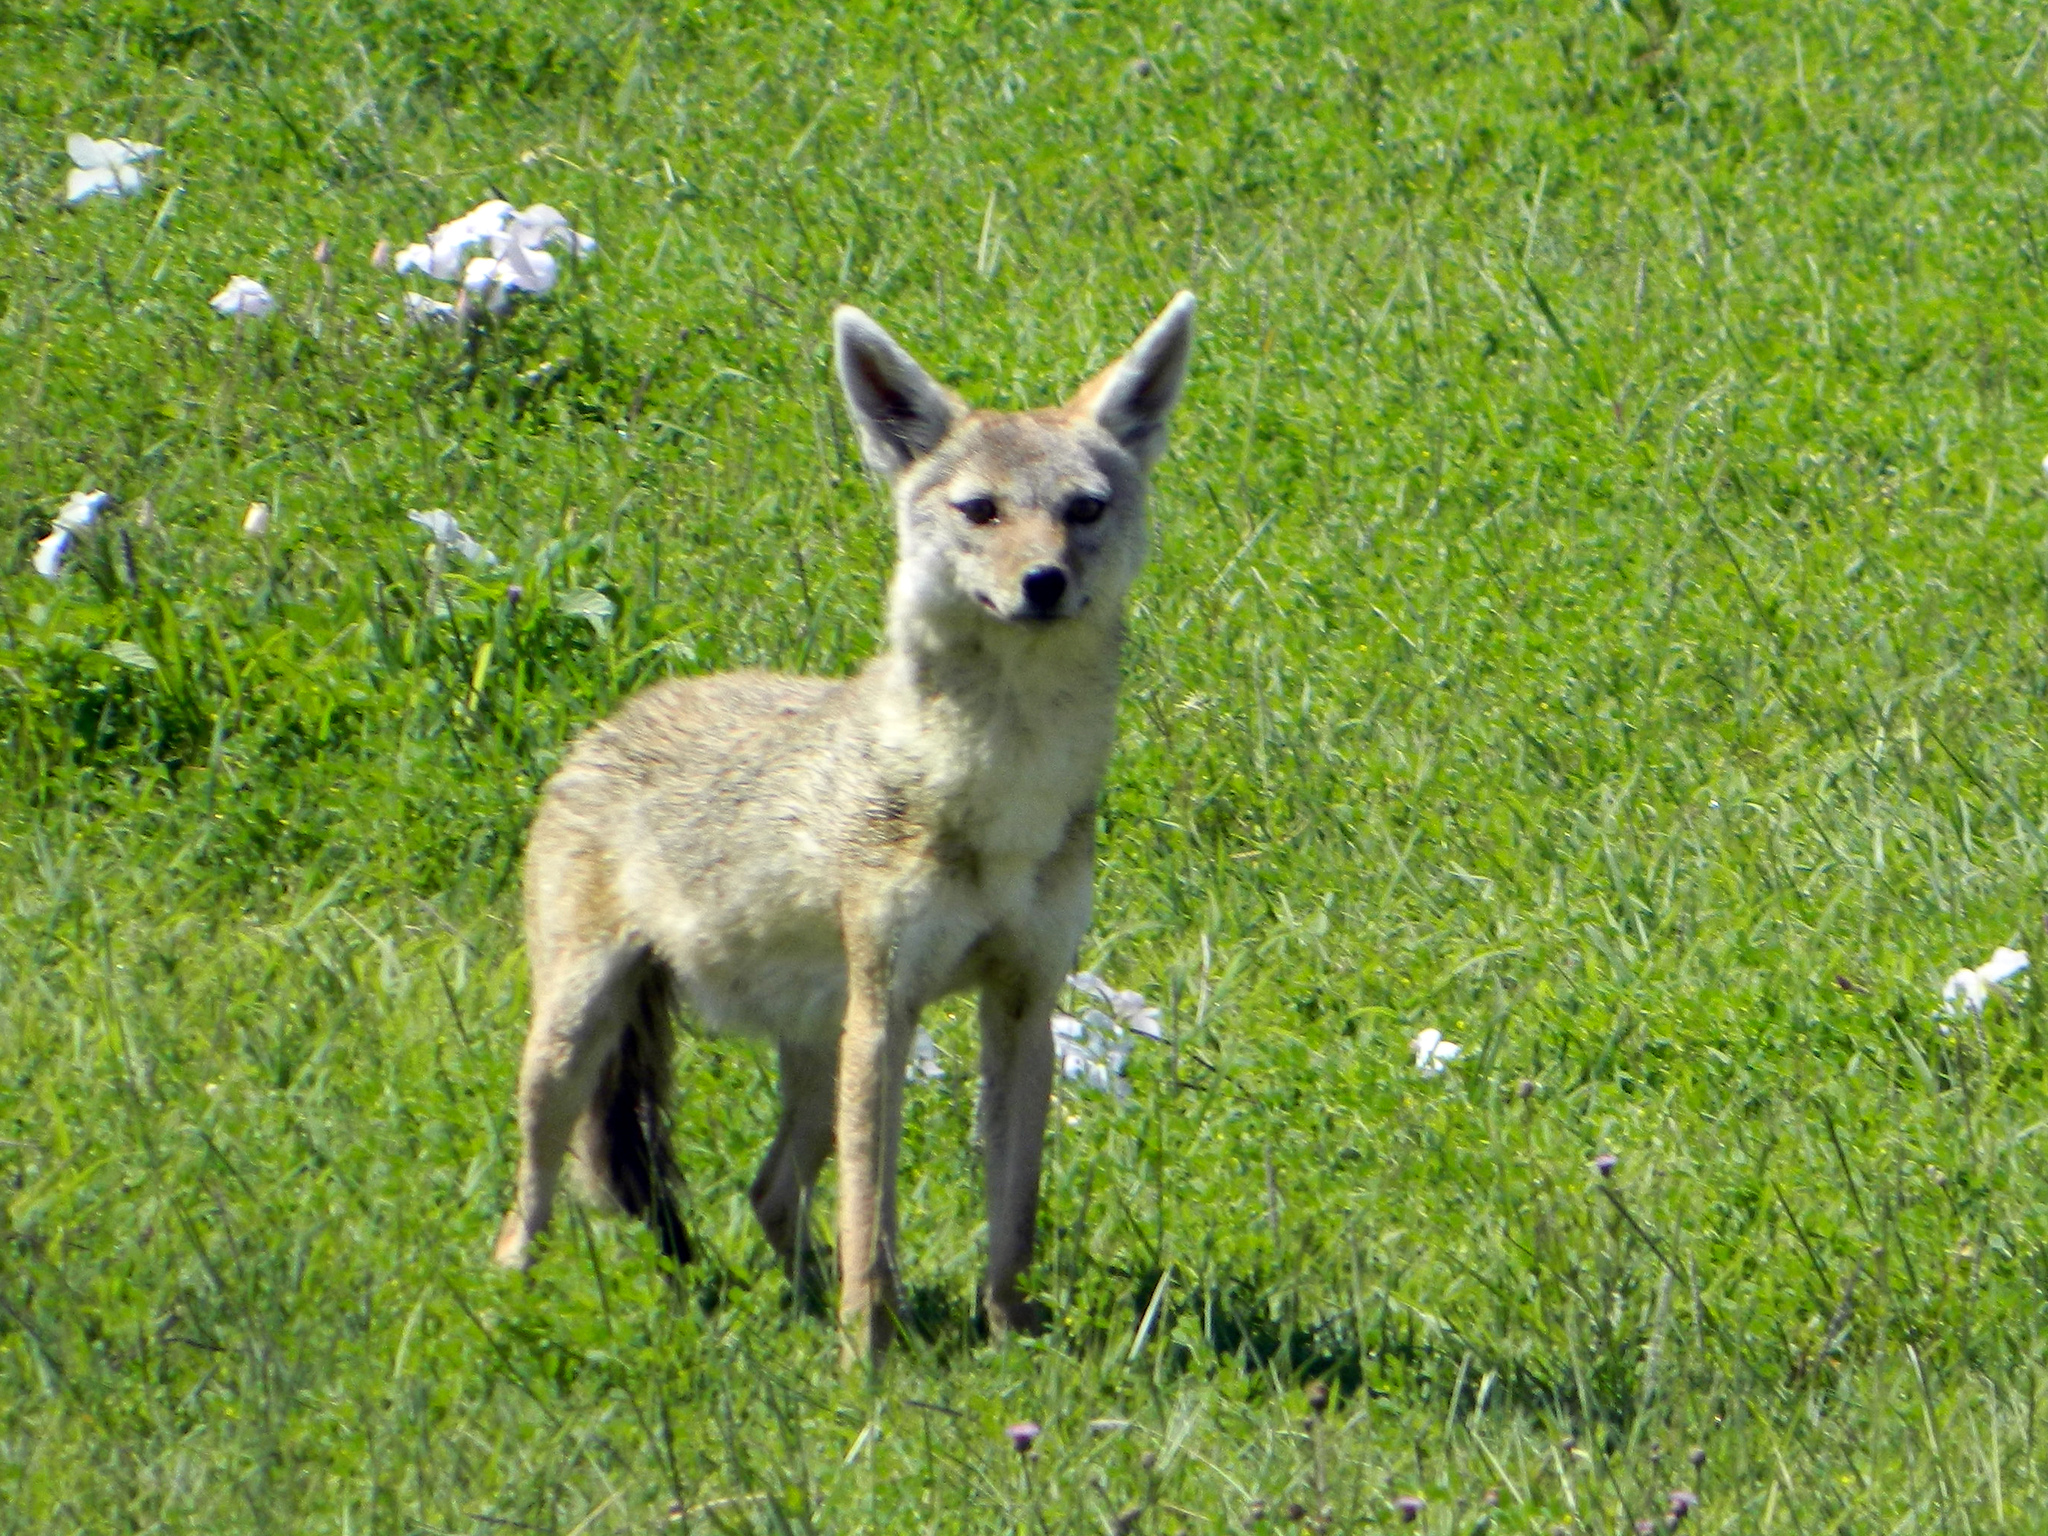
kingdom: Animalia
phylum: Chordata
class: Mammalia
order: Carnivora
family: Canidae
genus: Canis
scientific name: Canis lupaster
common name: African golden wolf
